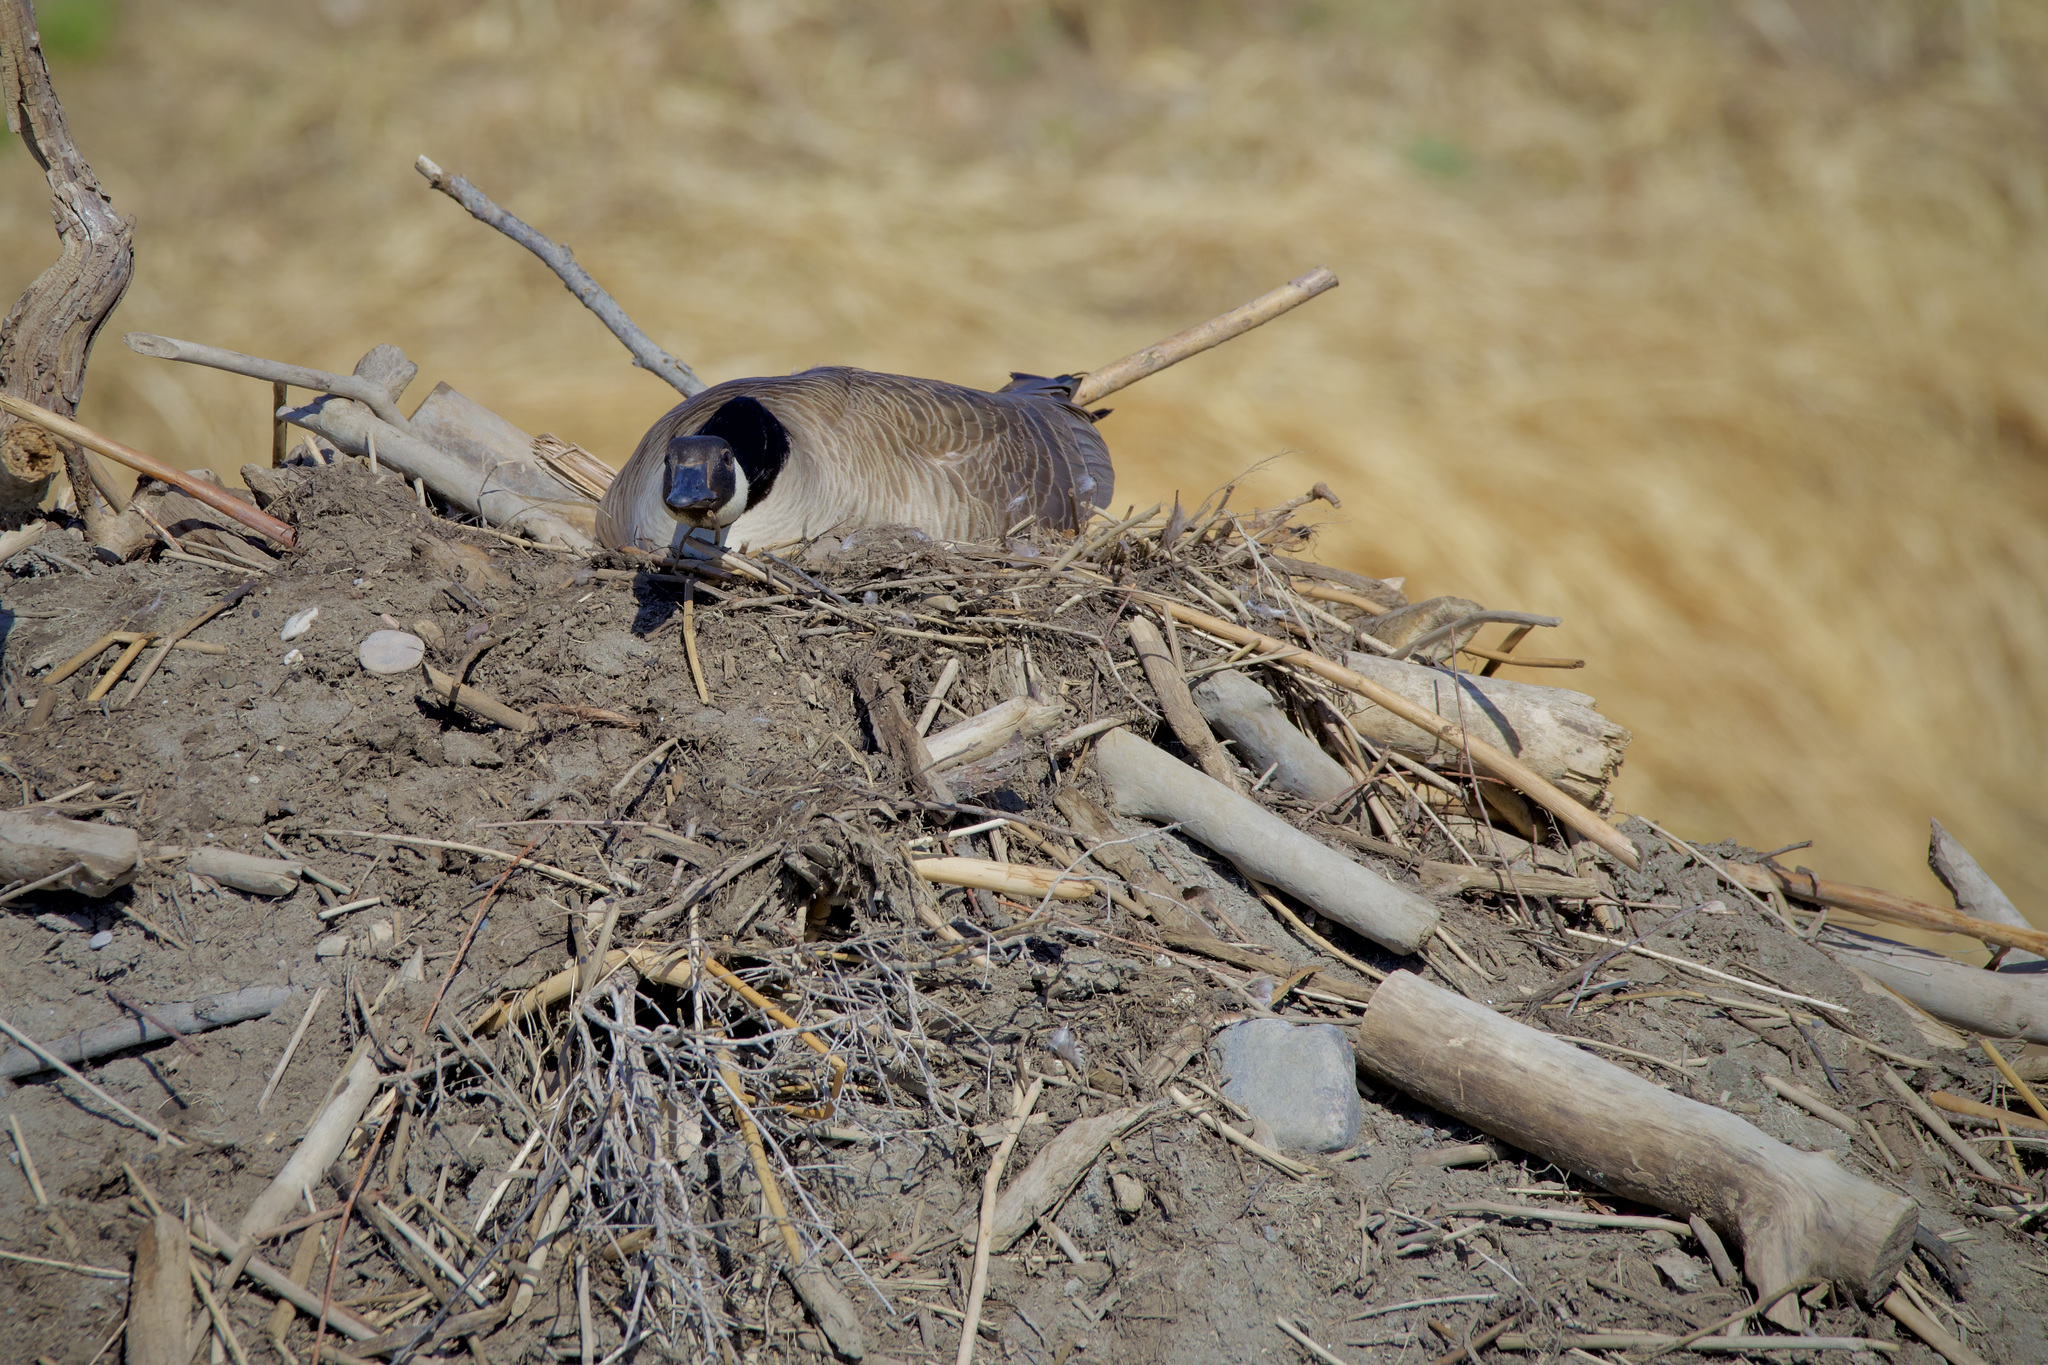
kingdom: Animalia
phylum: Chordata
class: Aves
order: Anseriformes
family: Anatidae
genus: Branta
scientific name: Branta canadensis
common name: Canada goose
